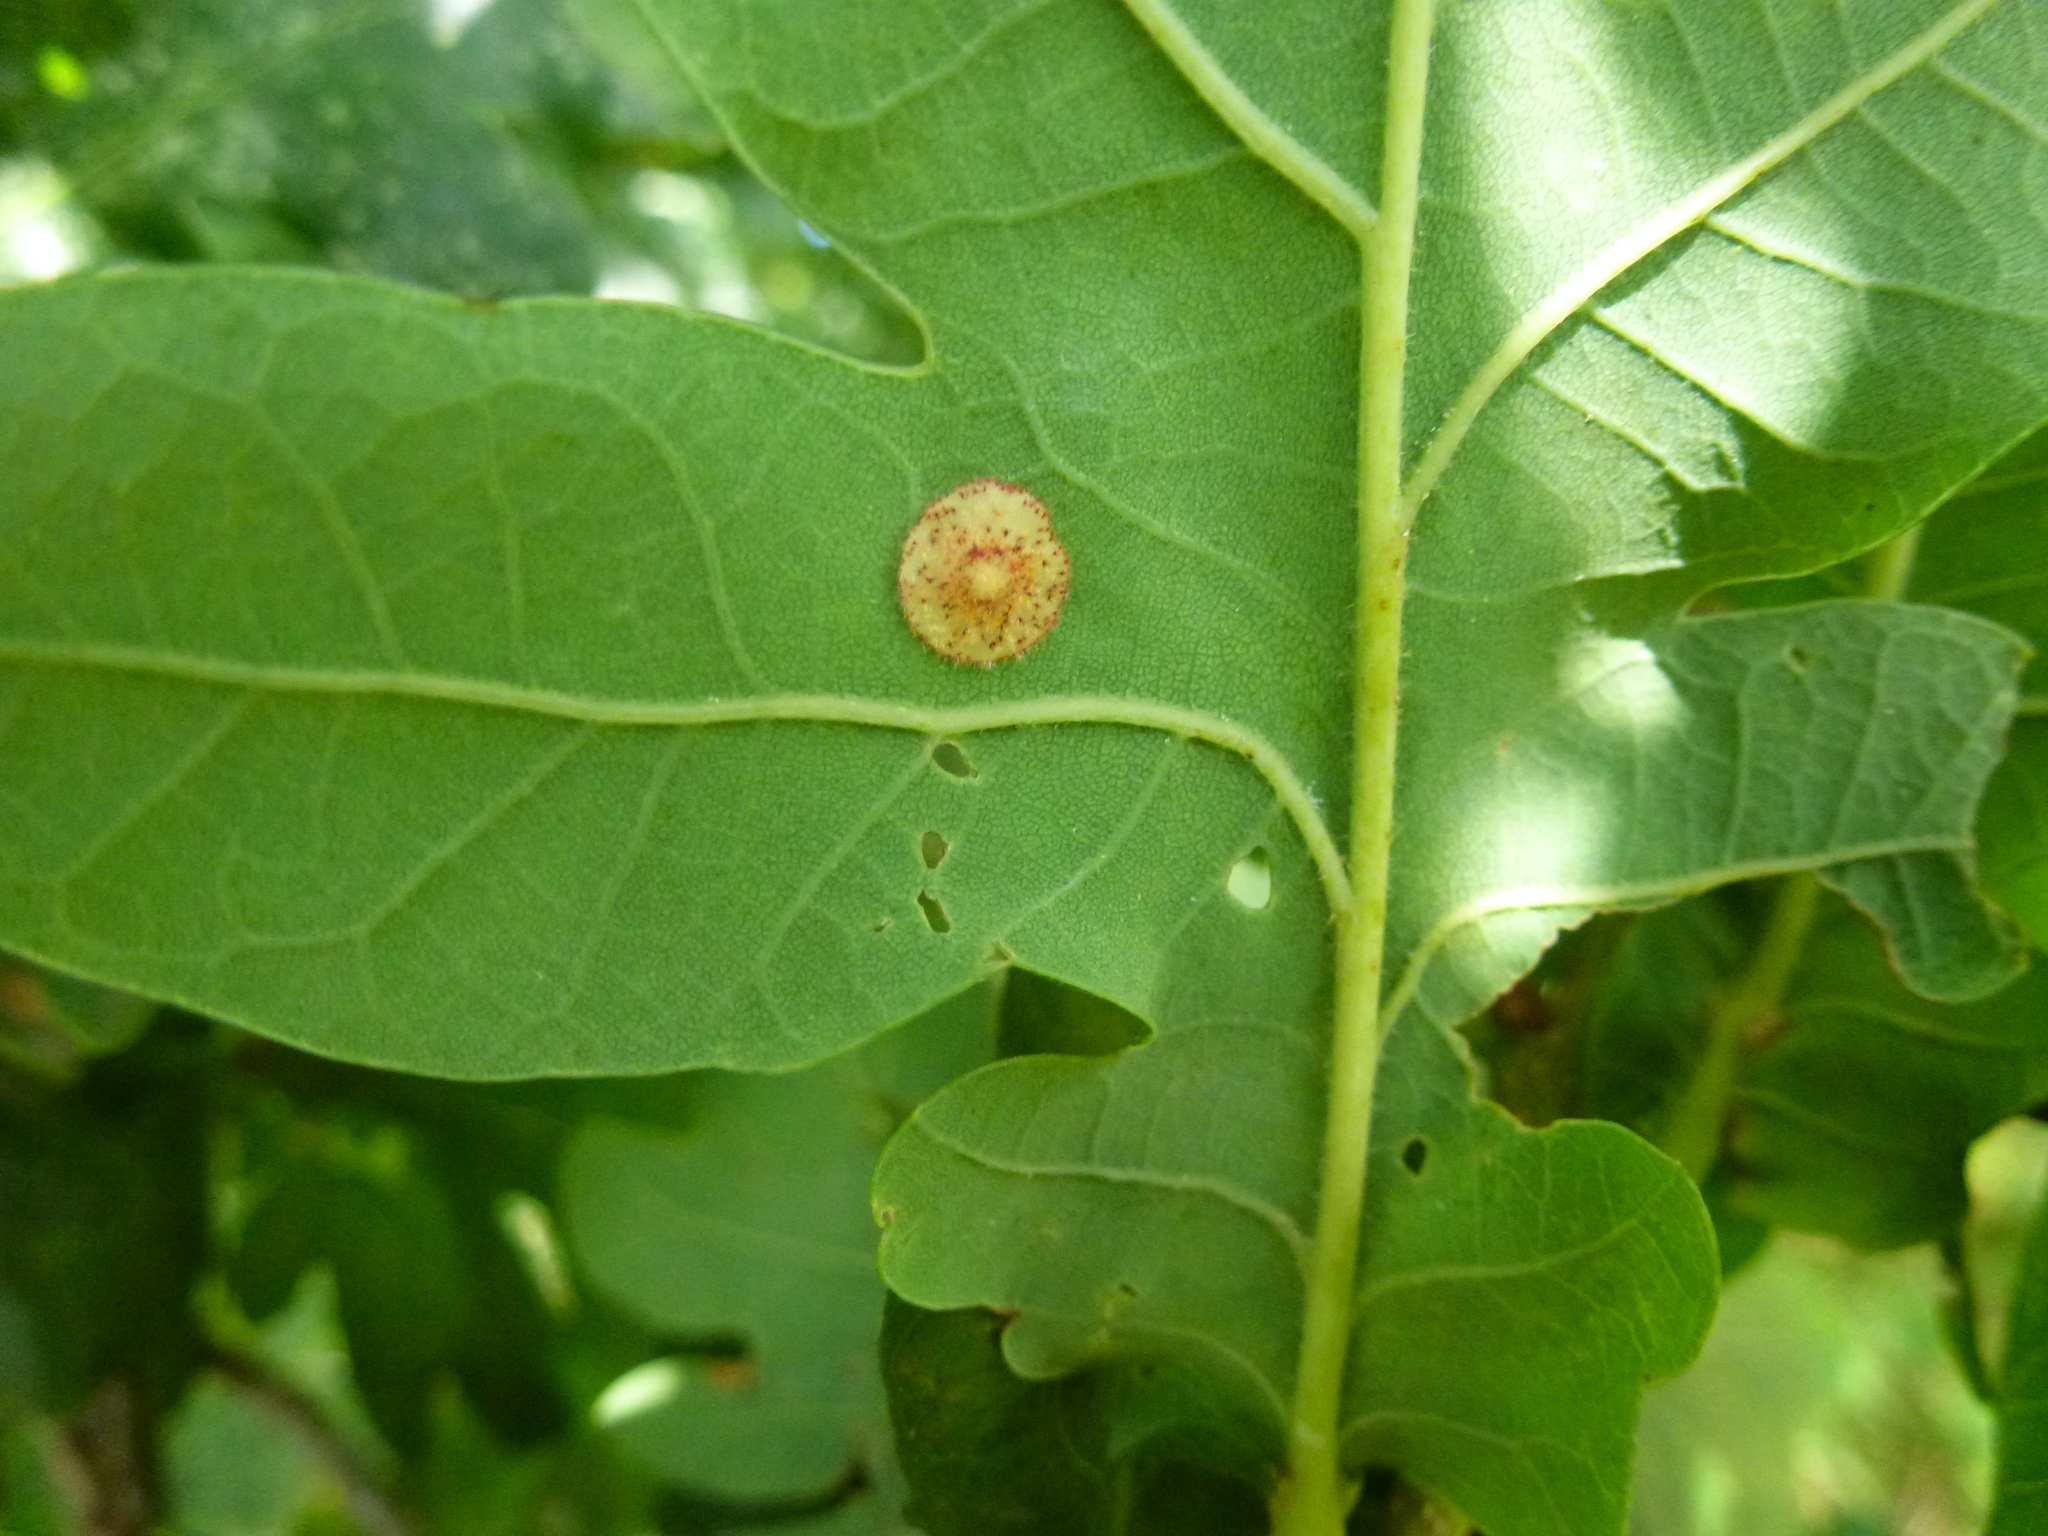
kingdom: Animalia
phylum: Arthropoda
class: Insecta
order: Hymenoptera
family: Cynipidae
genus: Neuroterus
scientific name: Neuroterus quercusbaccarum
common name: Common spangle gall
